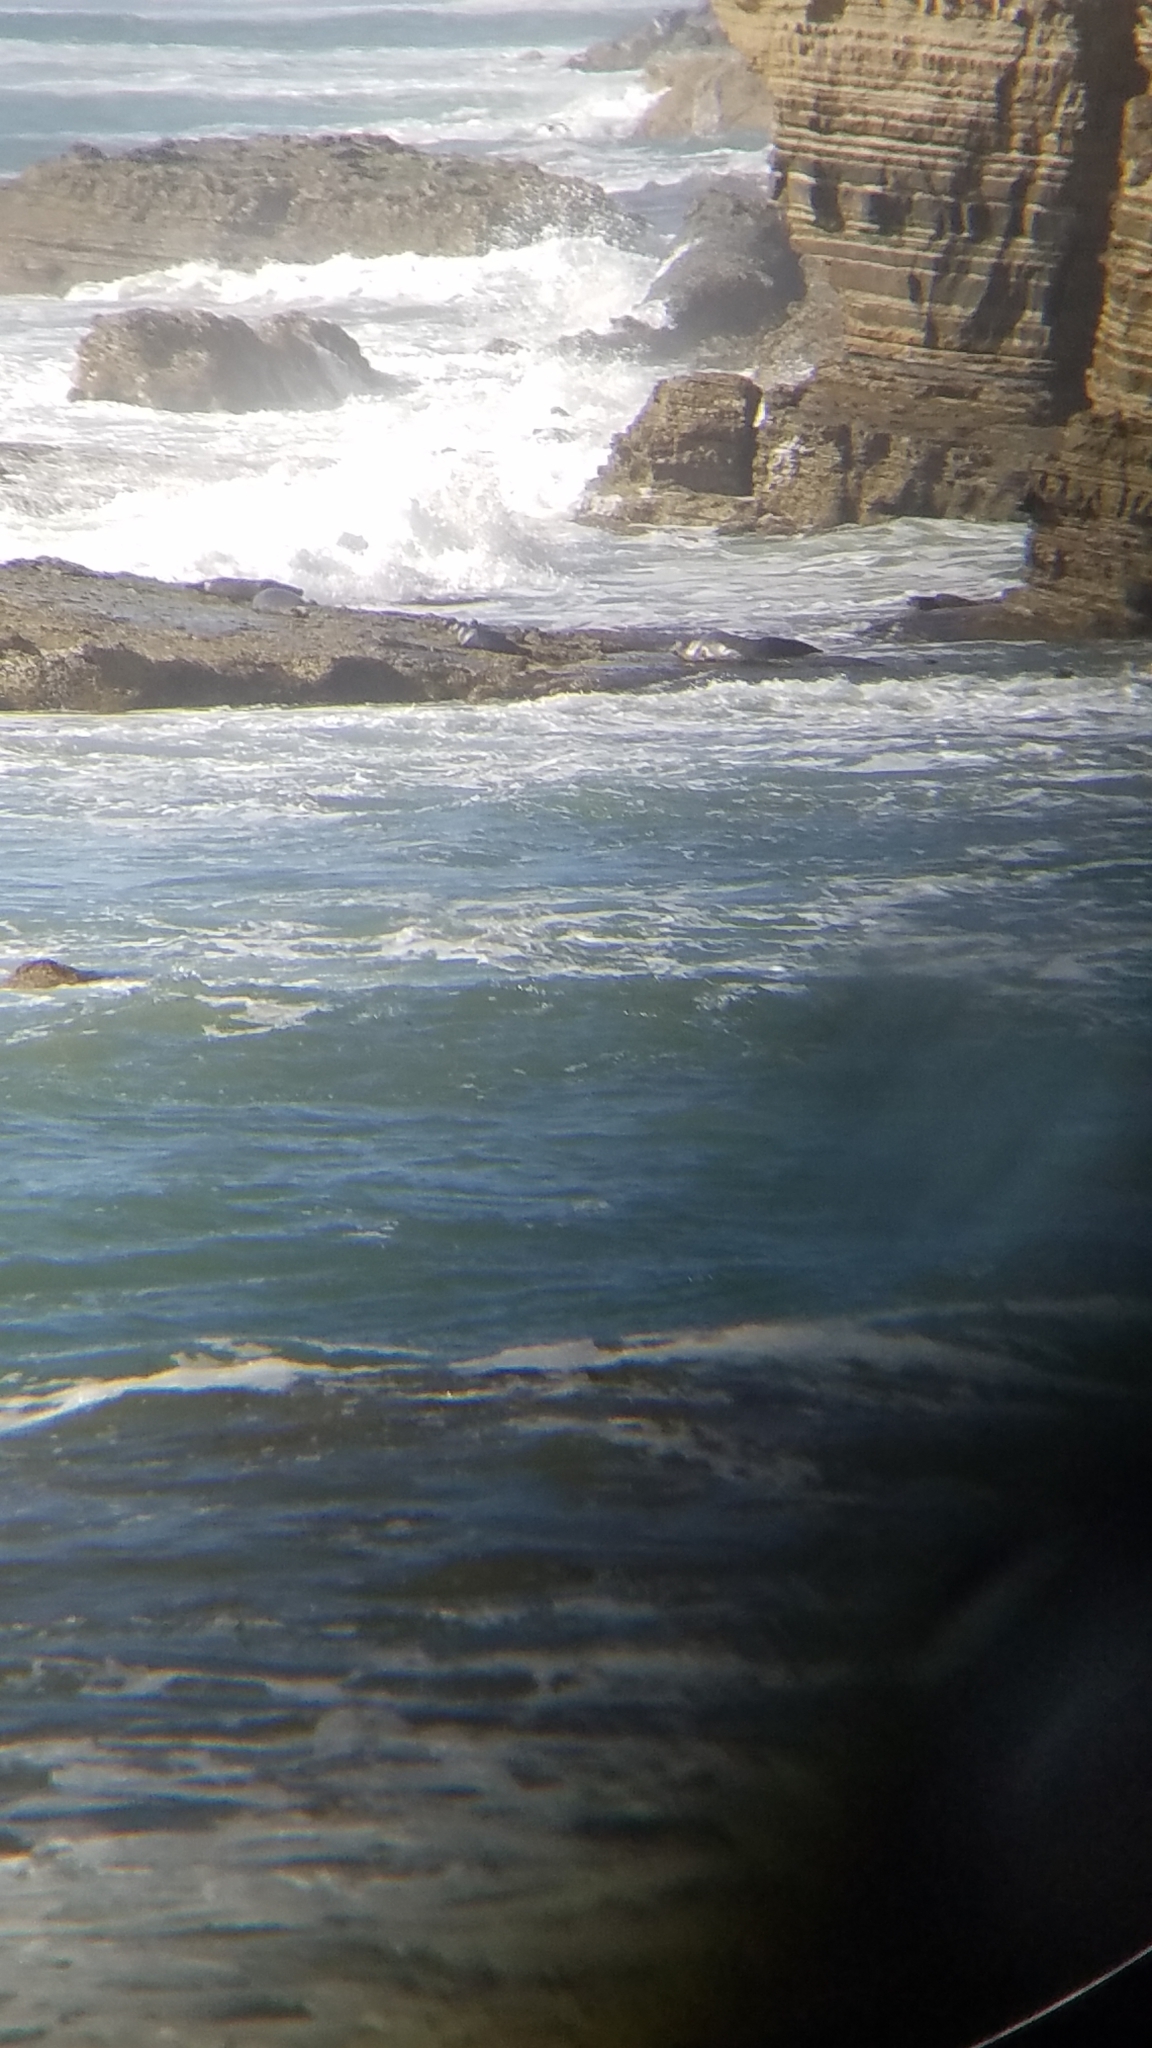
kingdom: Animalia
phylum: Chordata
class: Mammalia
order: Carnivora
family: Phocidae
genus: Phoca
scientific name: Phoca vitulina
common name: Harbor seal
